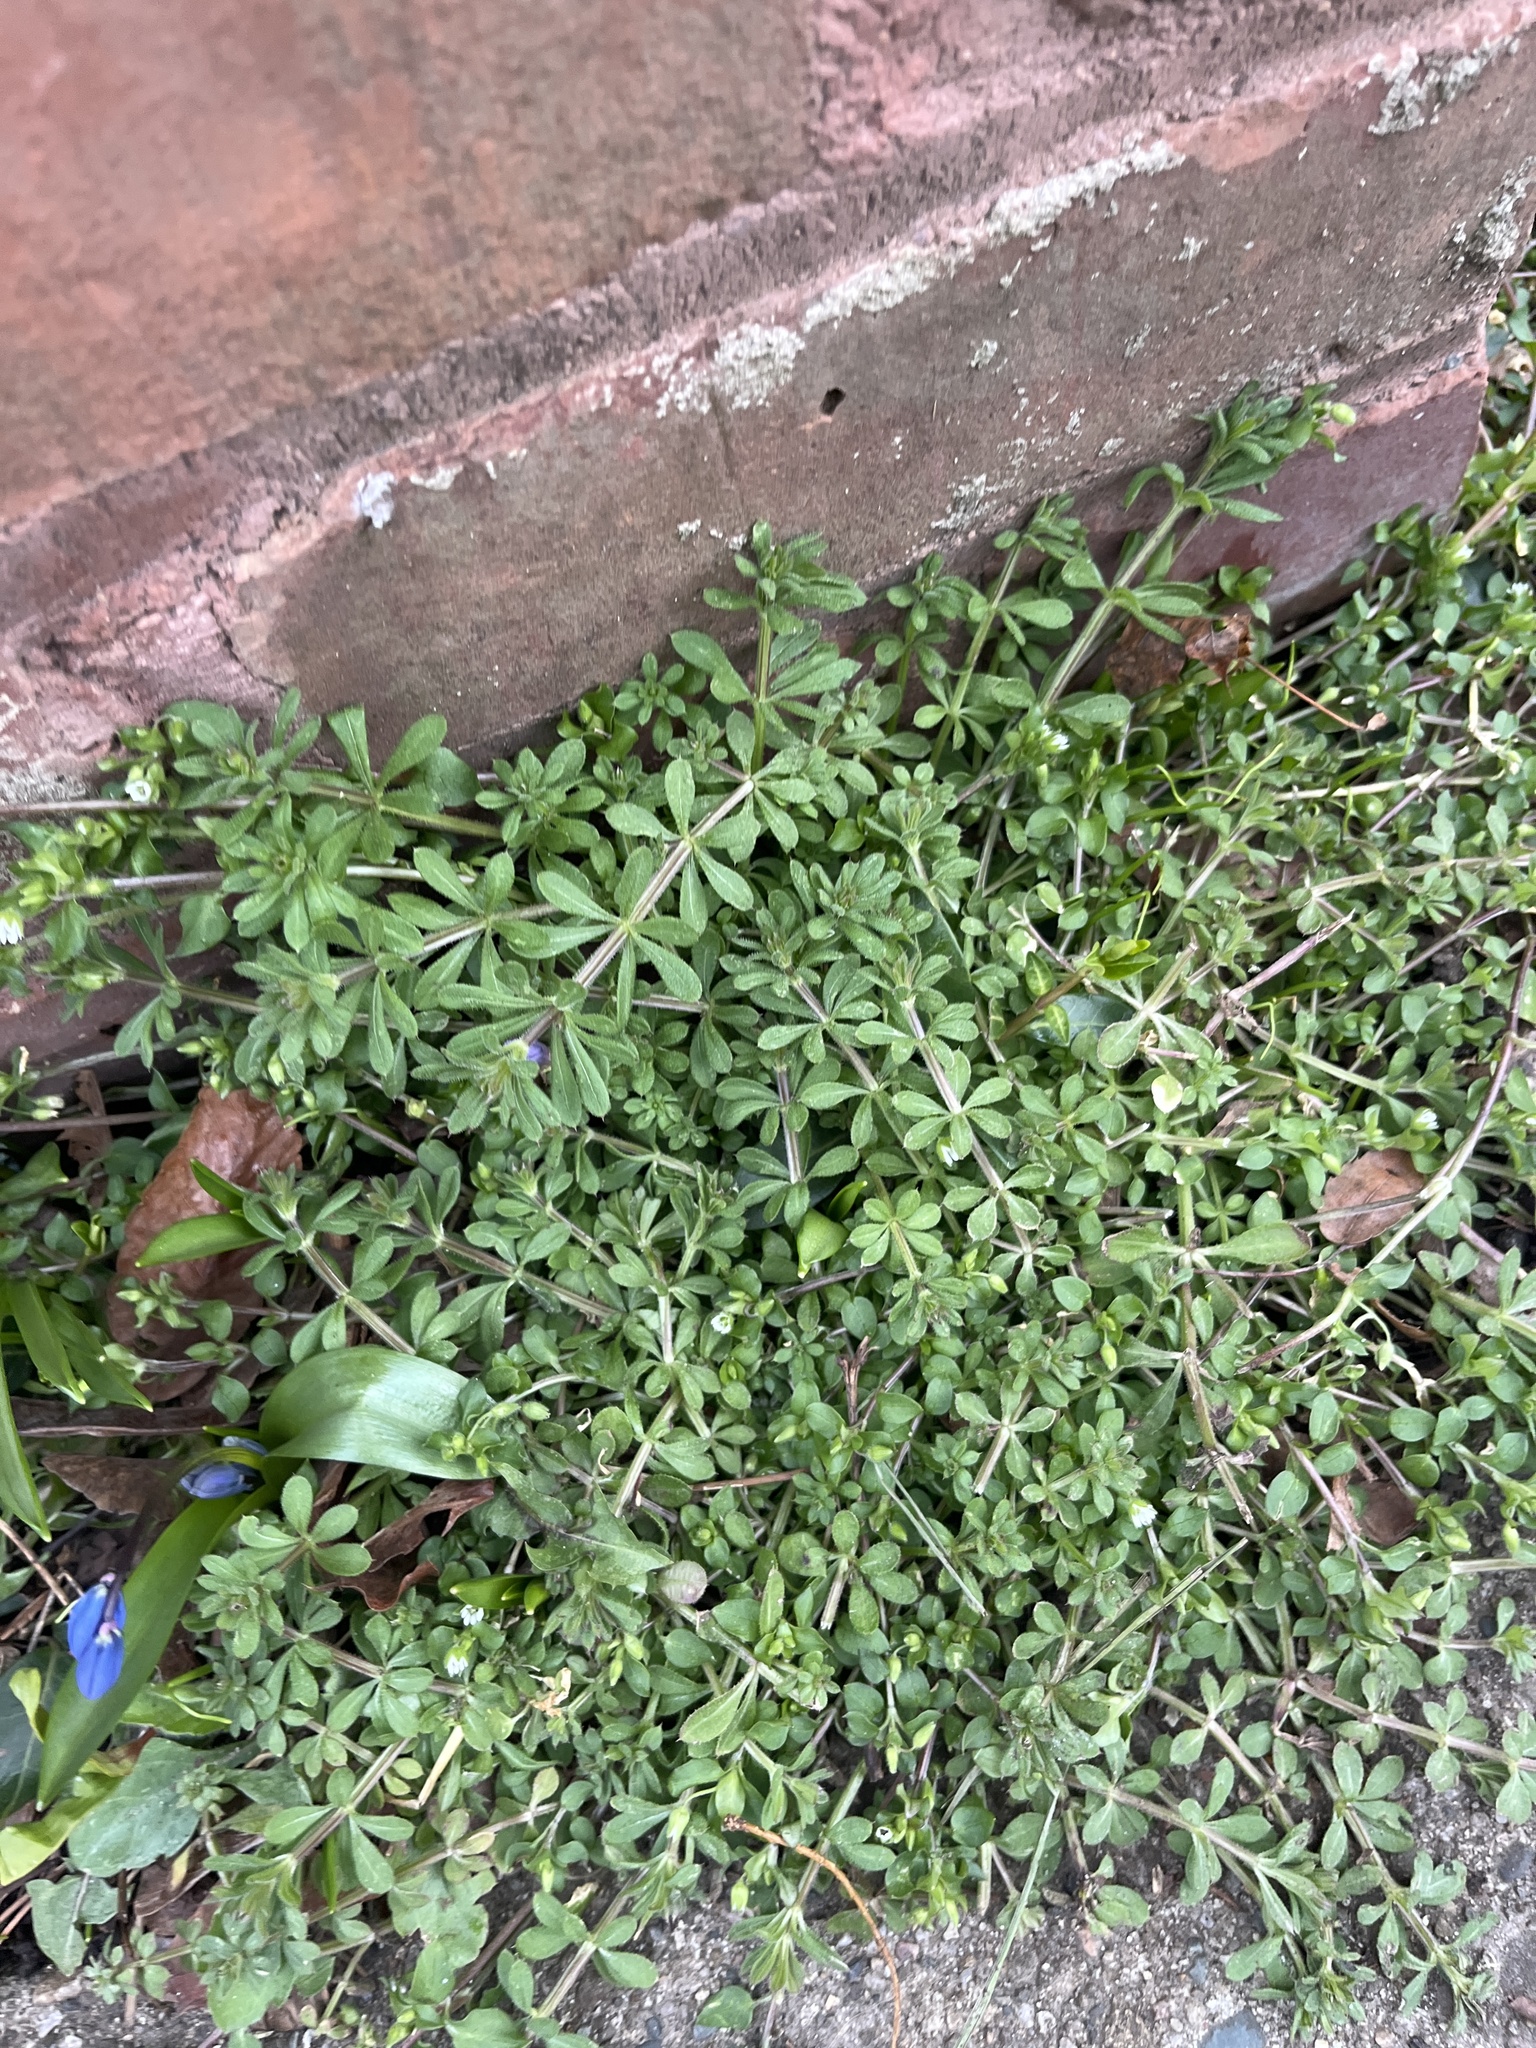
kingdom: Plantae
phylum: Tracheophyta
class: Magnoliopsida
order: Gentianales
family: Rubiaceae
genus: Galium
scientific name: Galium aparine
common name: Cleavers
